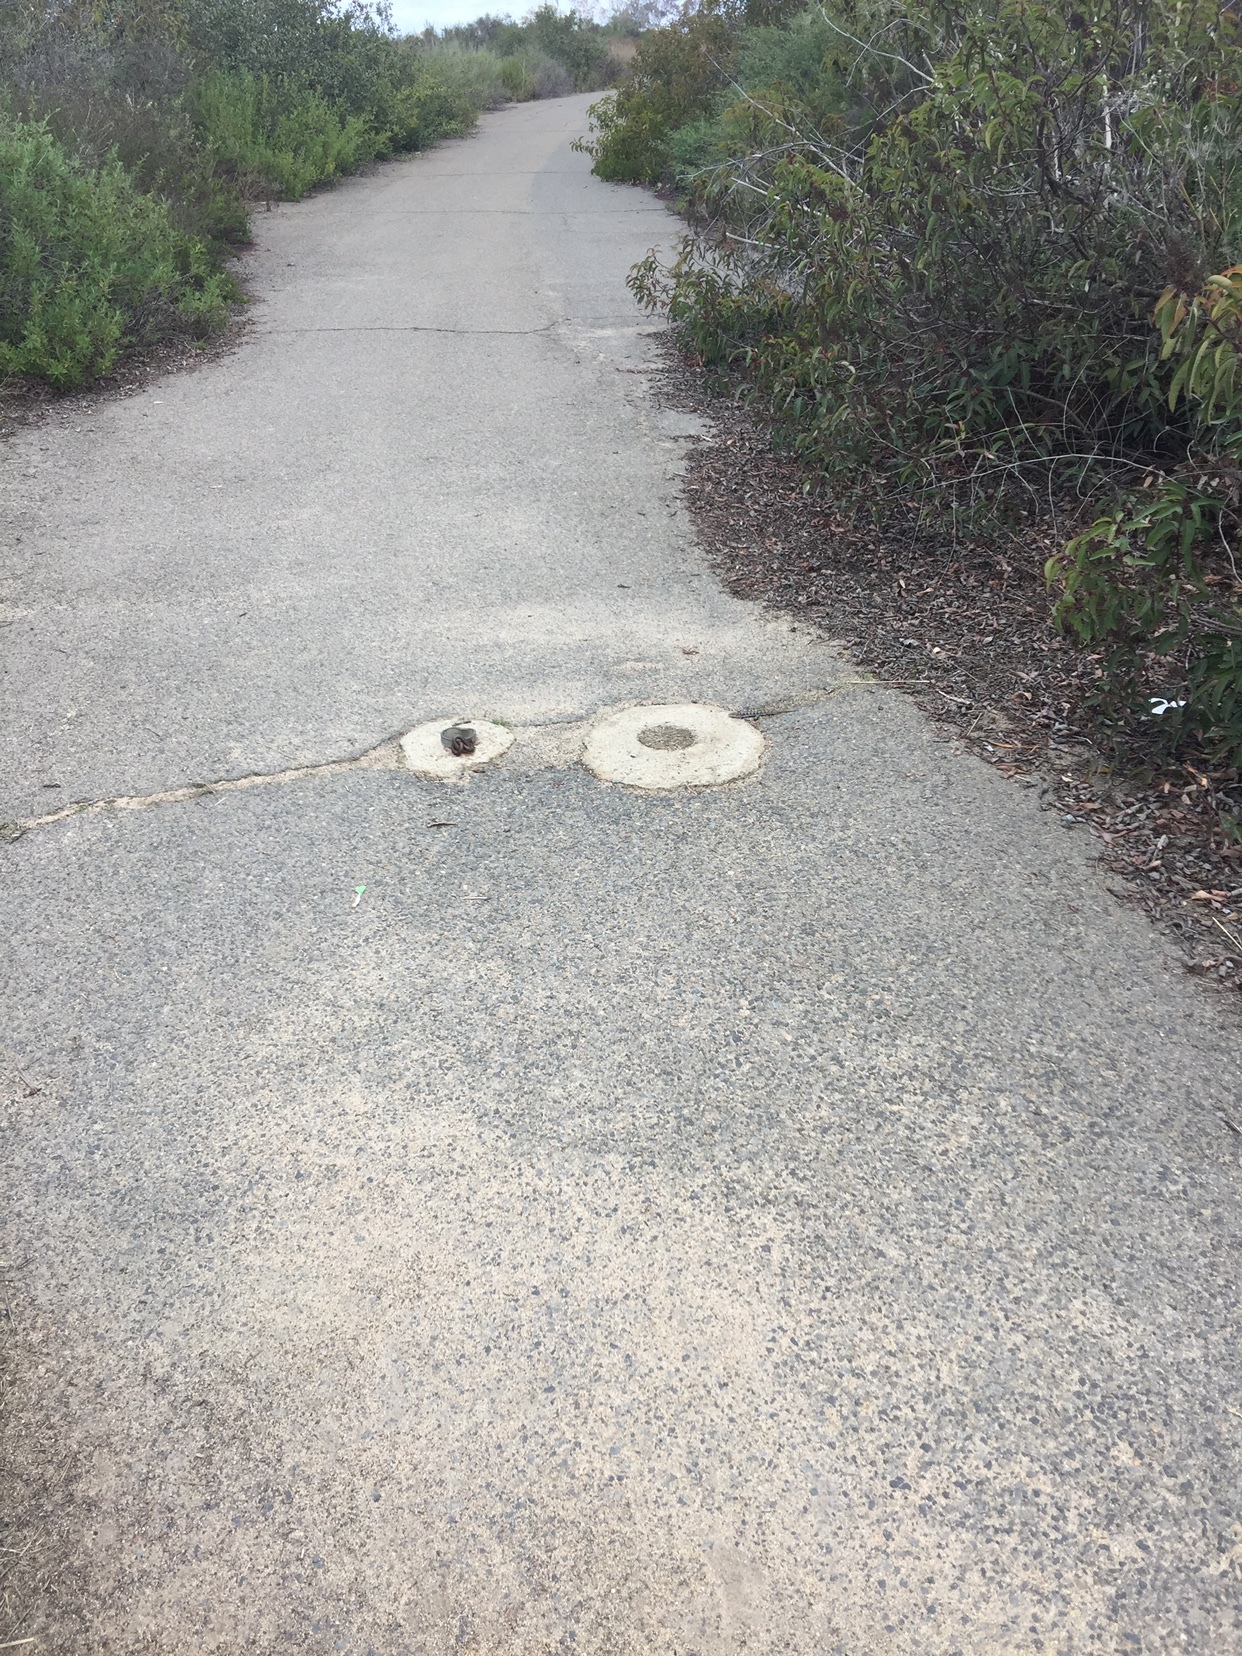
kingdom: Animalia
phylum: Chordata
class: Squamata
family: Anguidae
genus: Elgaria
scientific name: Elgaria multicarinata
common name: Southern alligator lizard
